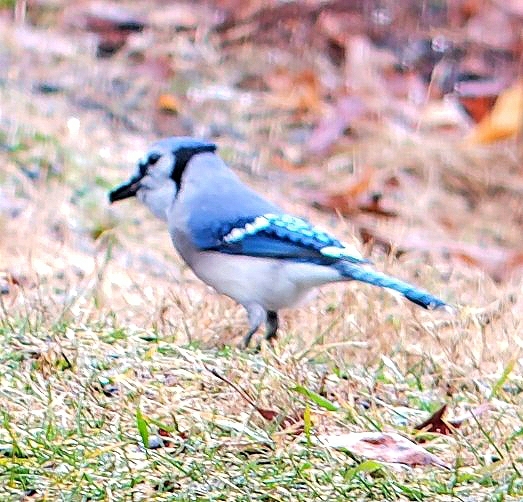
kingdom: Animalia
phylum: Chordata
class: Aves
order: Passeriformes
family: Corvidae
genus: Cyanocitta
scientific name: Cyanocitta cristata
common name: Blue jay
